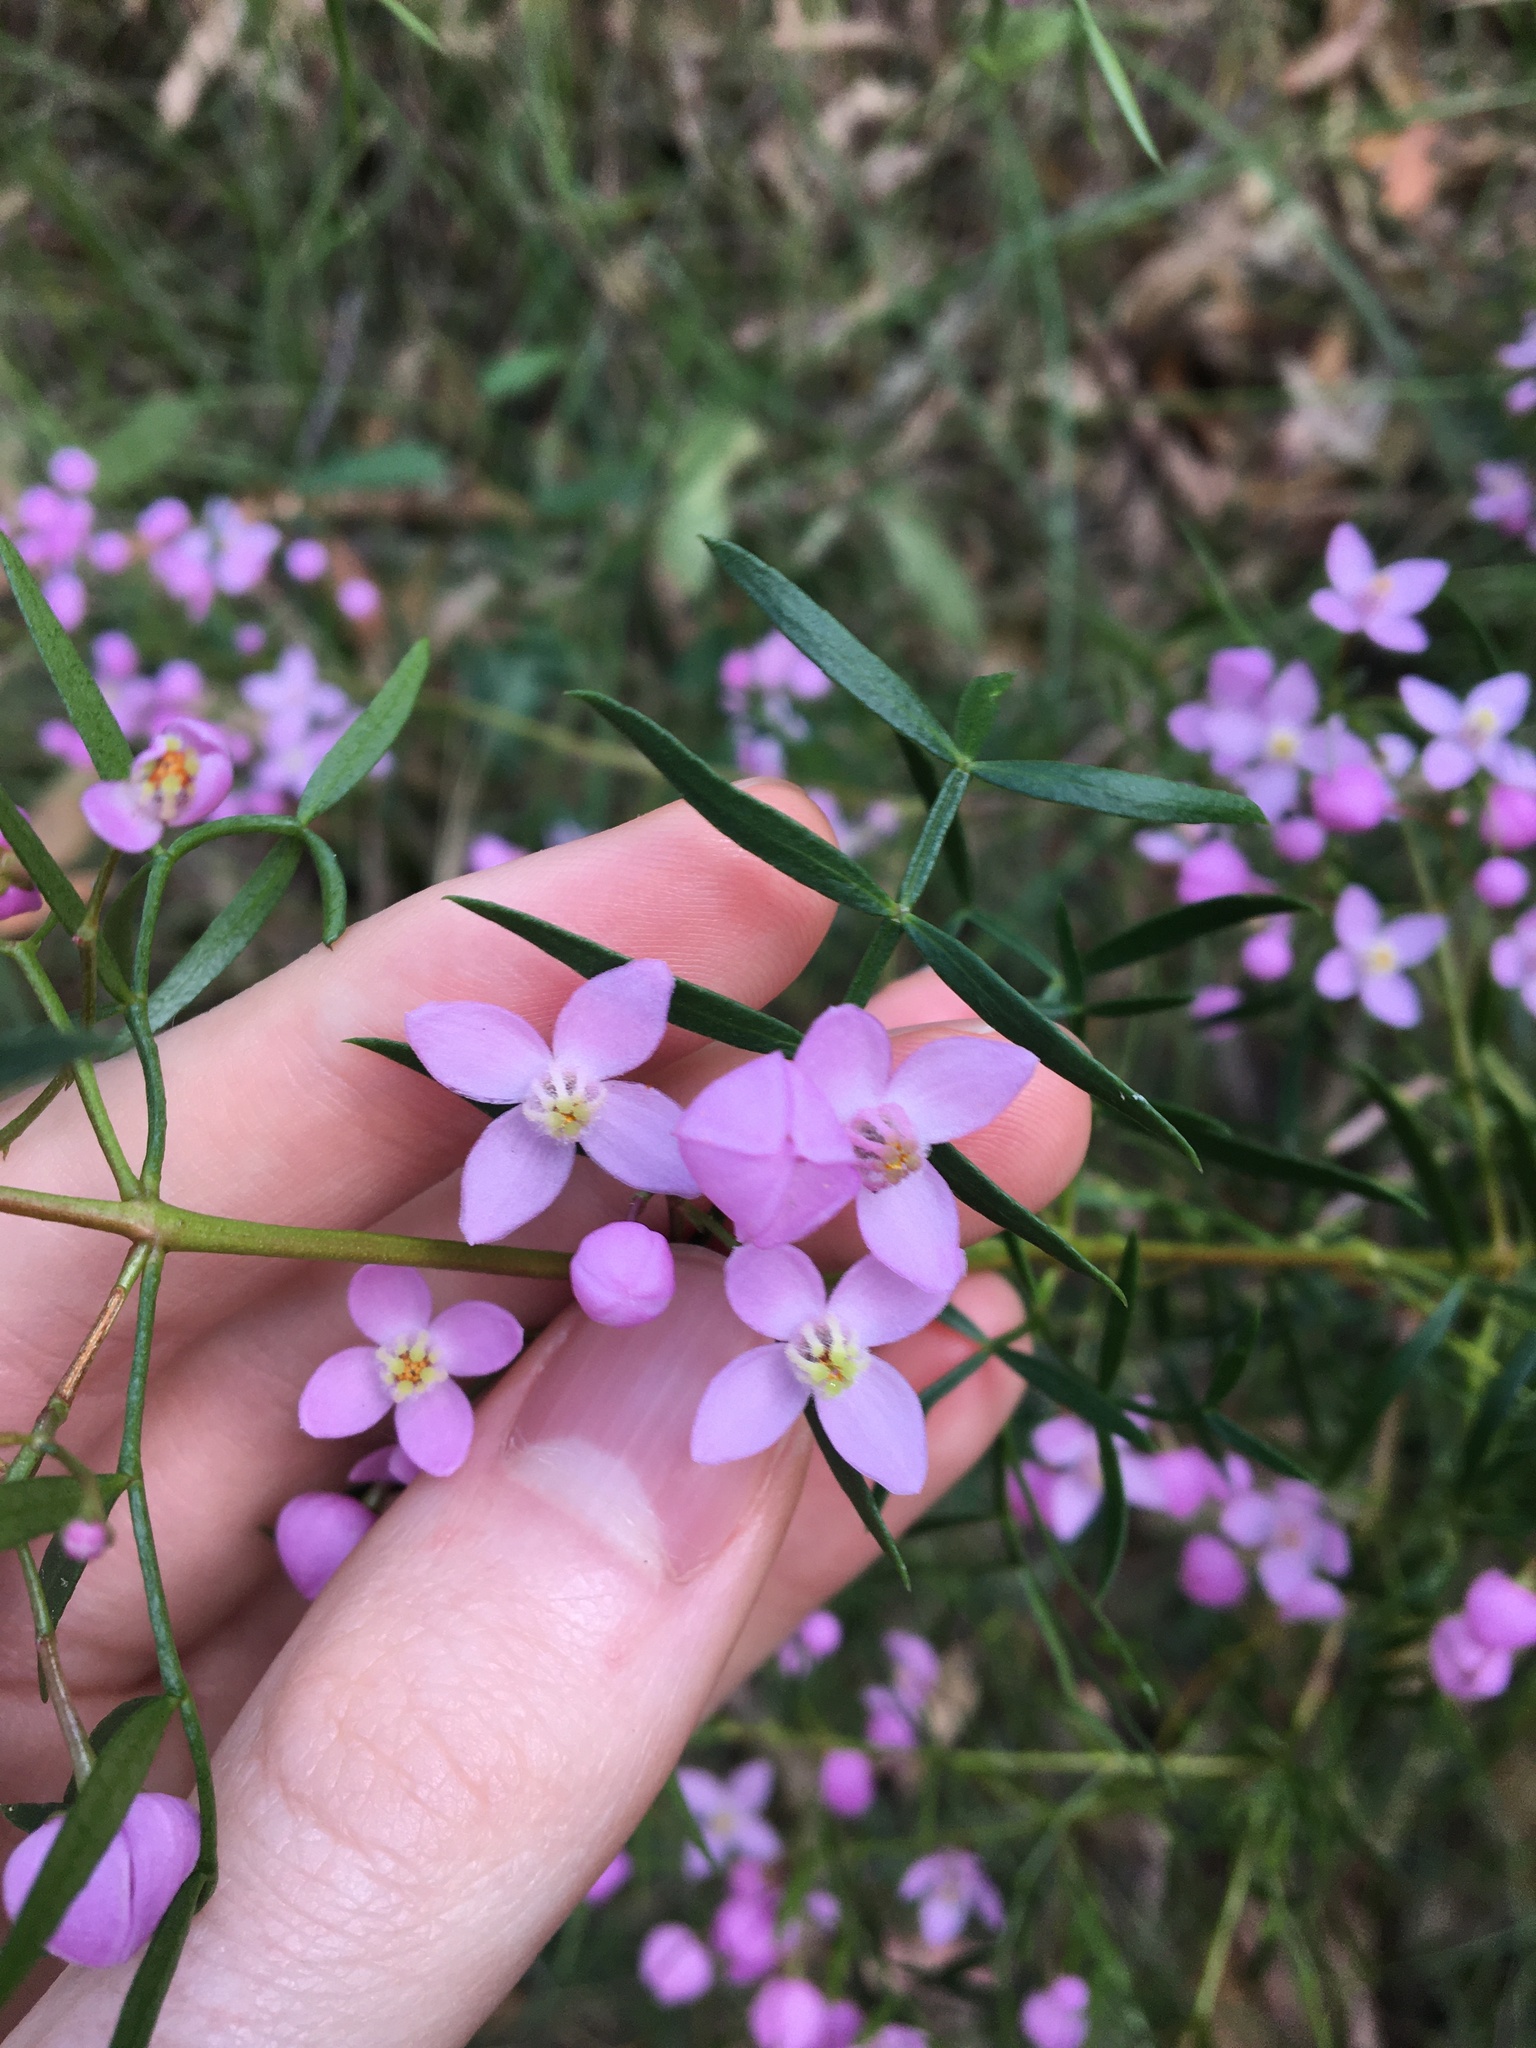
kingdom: Plantae
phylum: Tracheophyta
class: Magnoliopsida
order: Sapindales
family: Rutaceae
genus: Boronia
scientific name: Boronia pinnata
